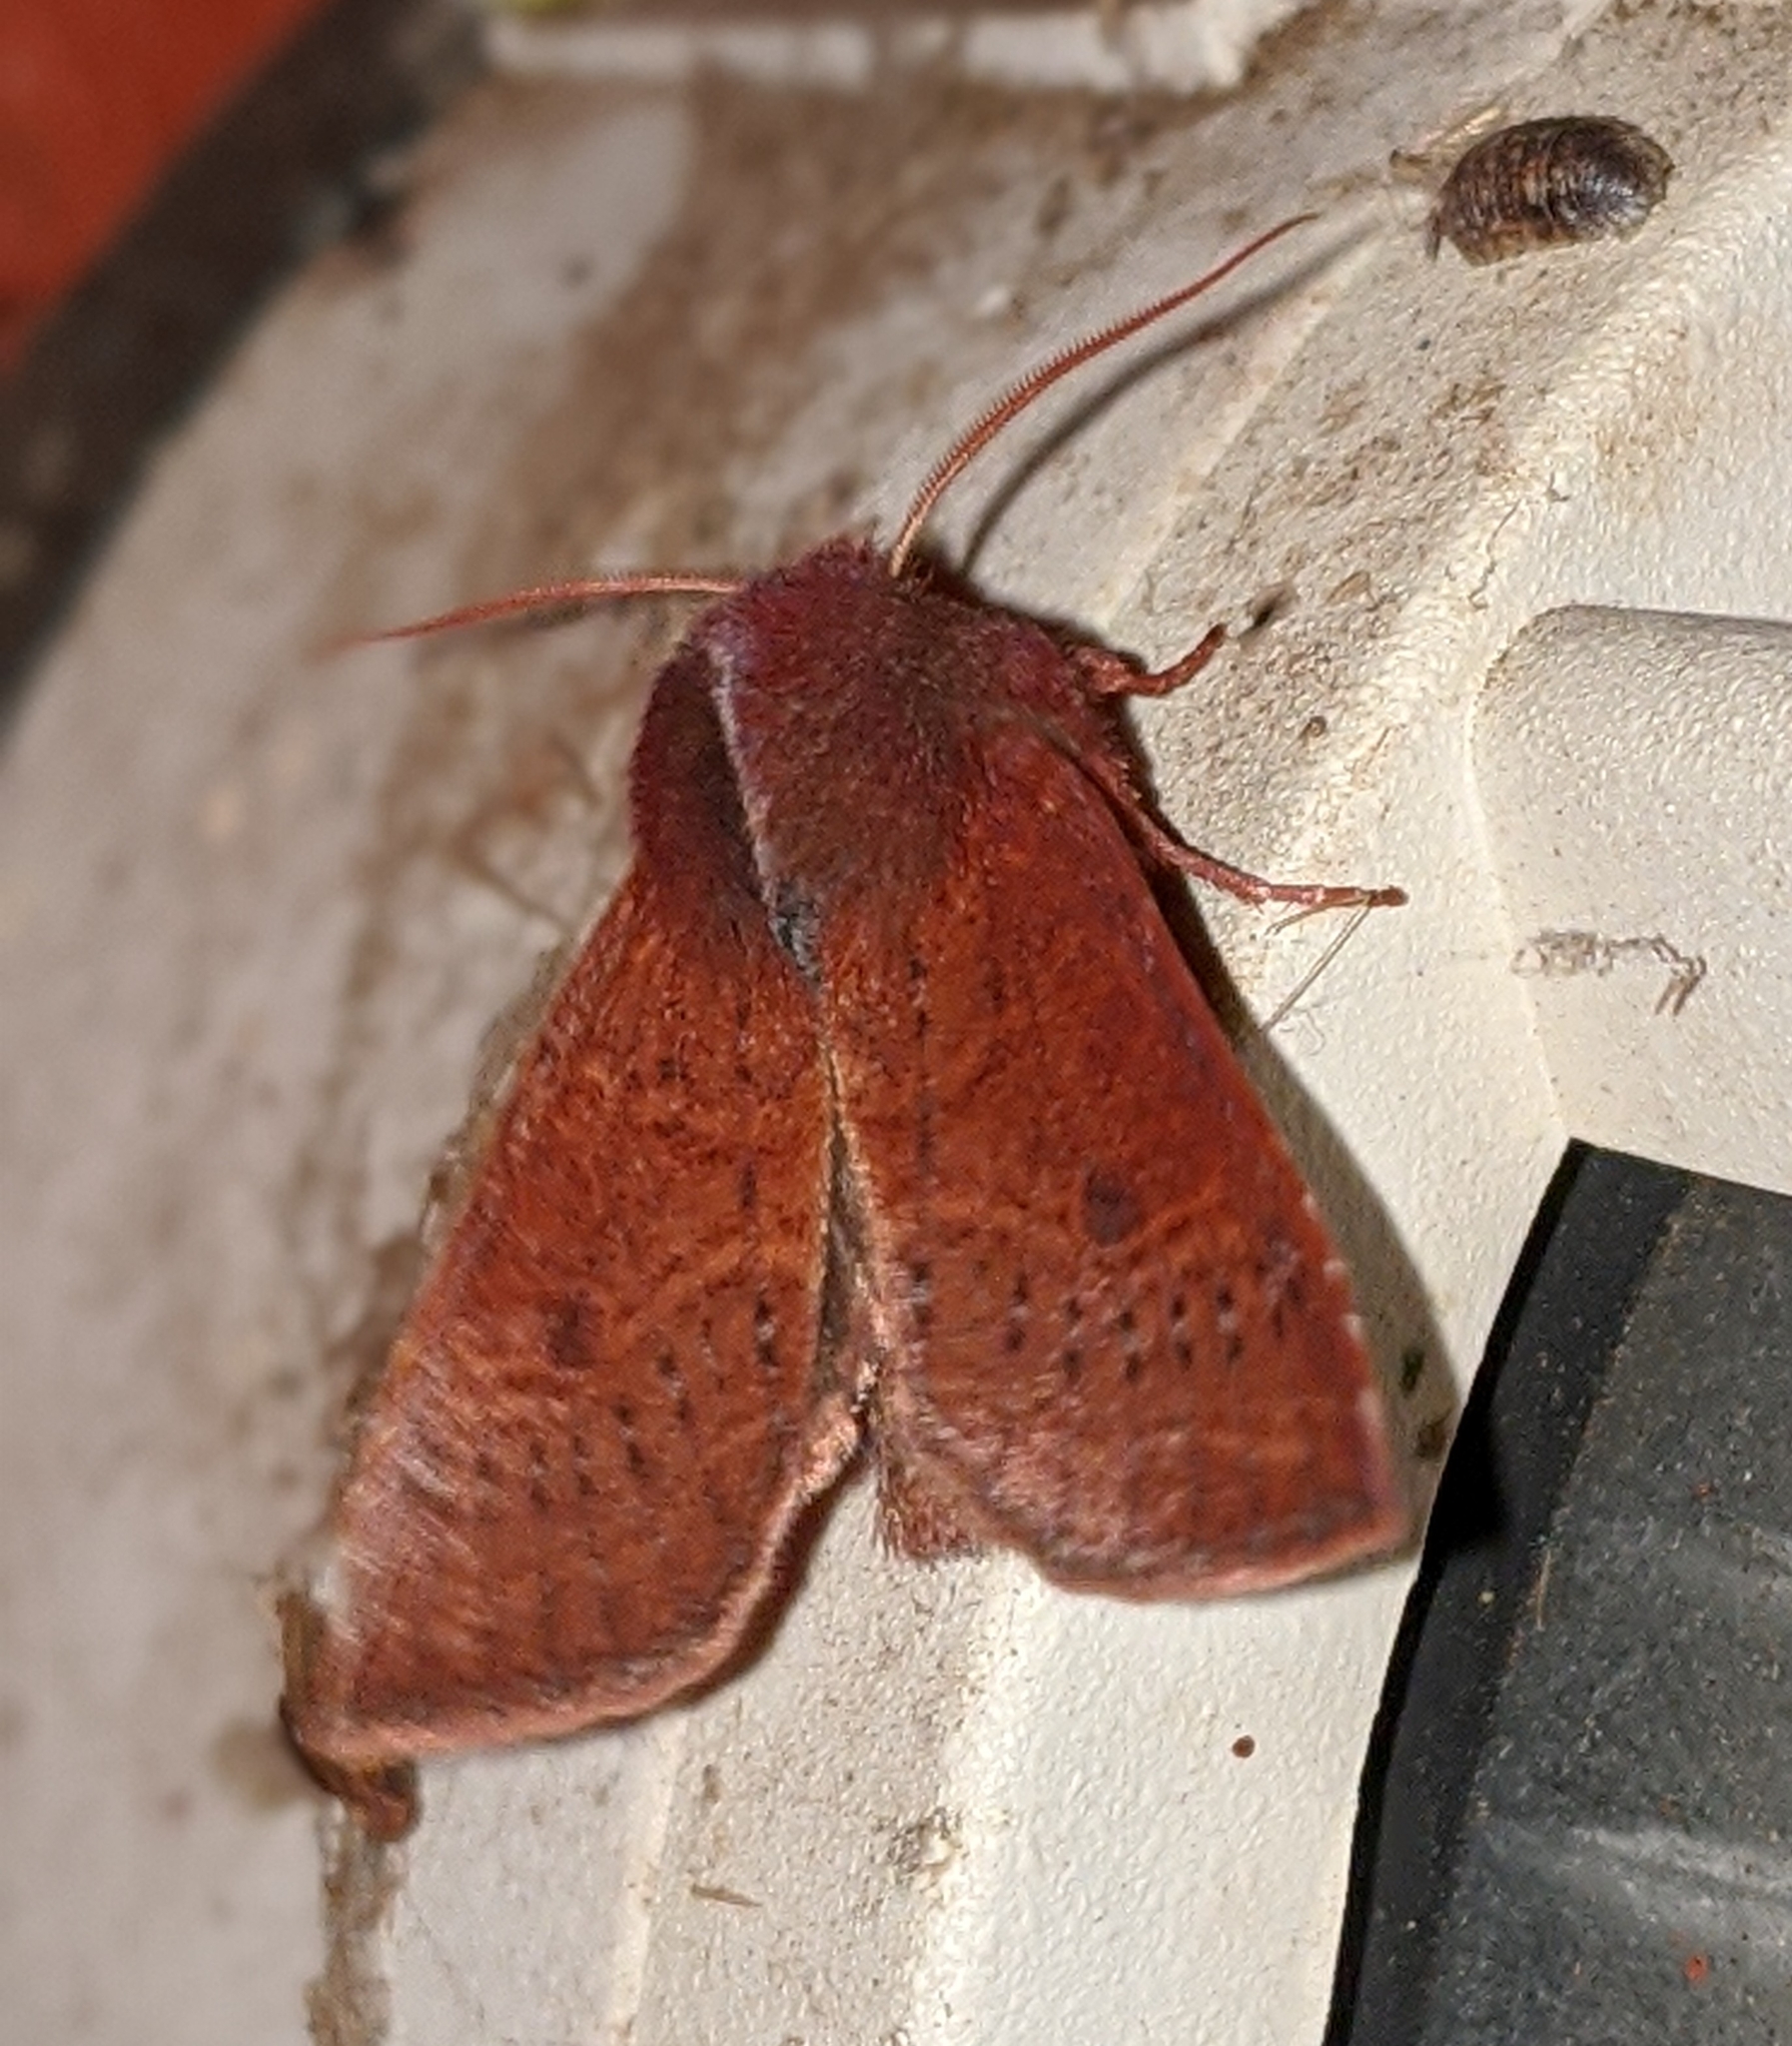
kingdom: Animalia
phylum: Arthropoda
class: Insecta
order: Lepidoptera
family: Noctuidae
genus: Orthosia
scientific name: Orthosia transparens
